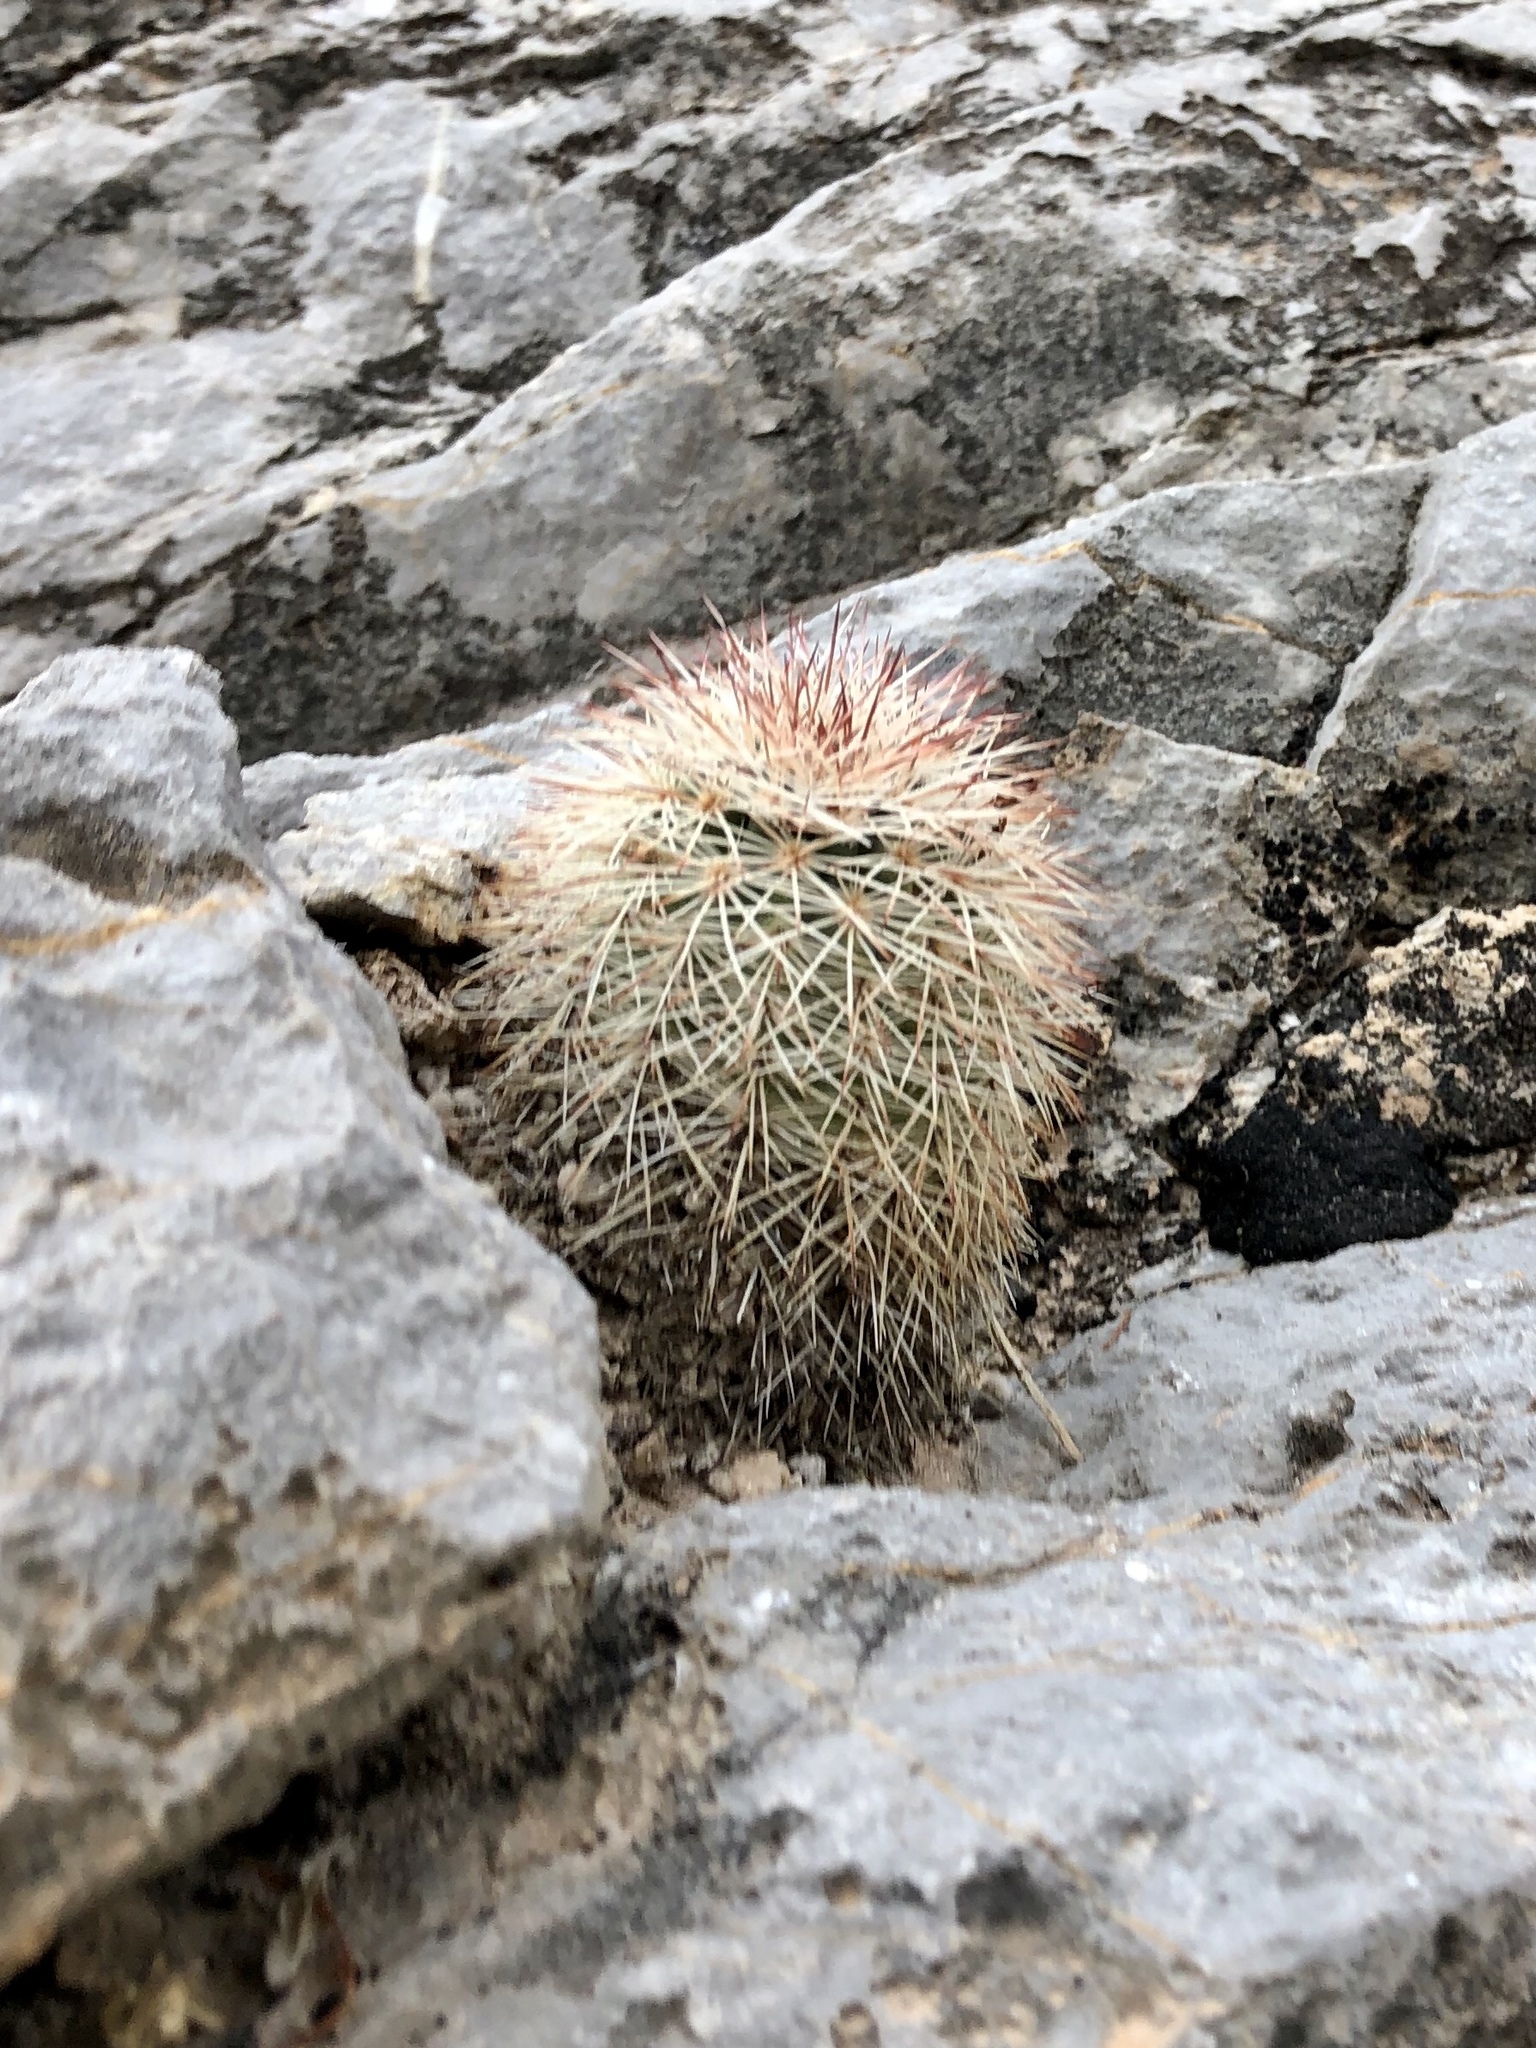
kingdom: Plantae
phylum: Tracheophyta
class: Magnoliopsida
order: Caryophyllales
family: Cactaceae
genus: Echinocereus
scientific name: Echinocereus dasyacanthus
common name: Spiny hedgehog cactus
